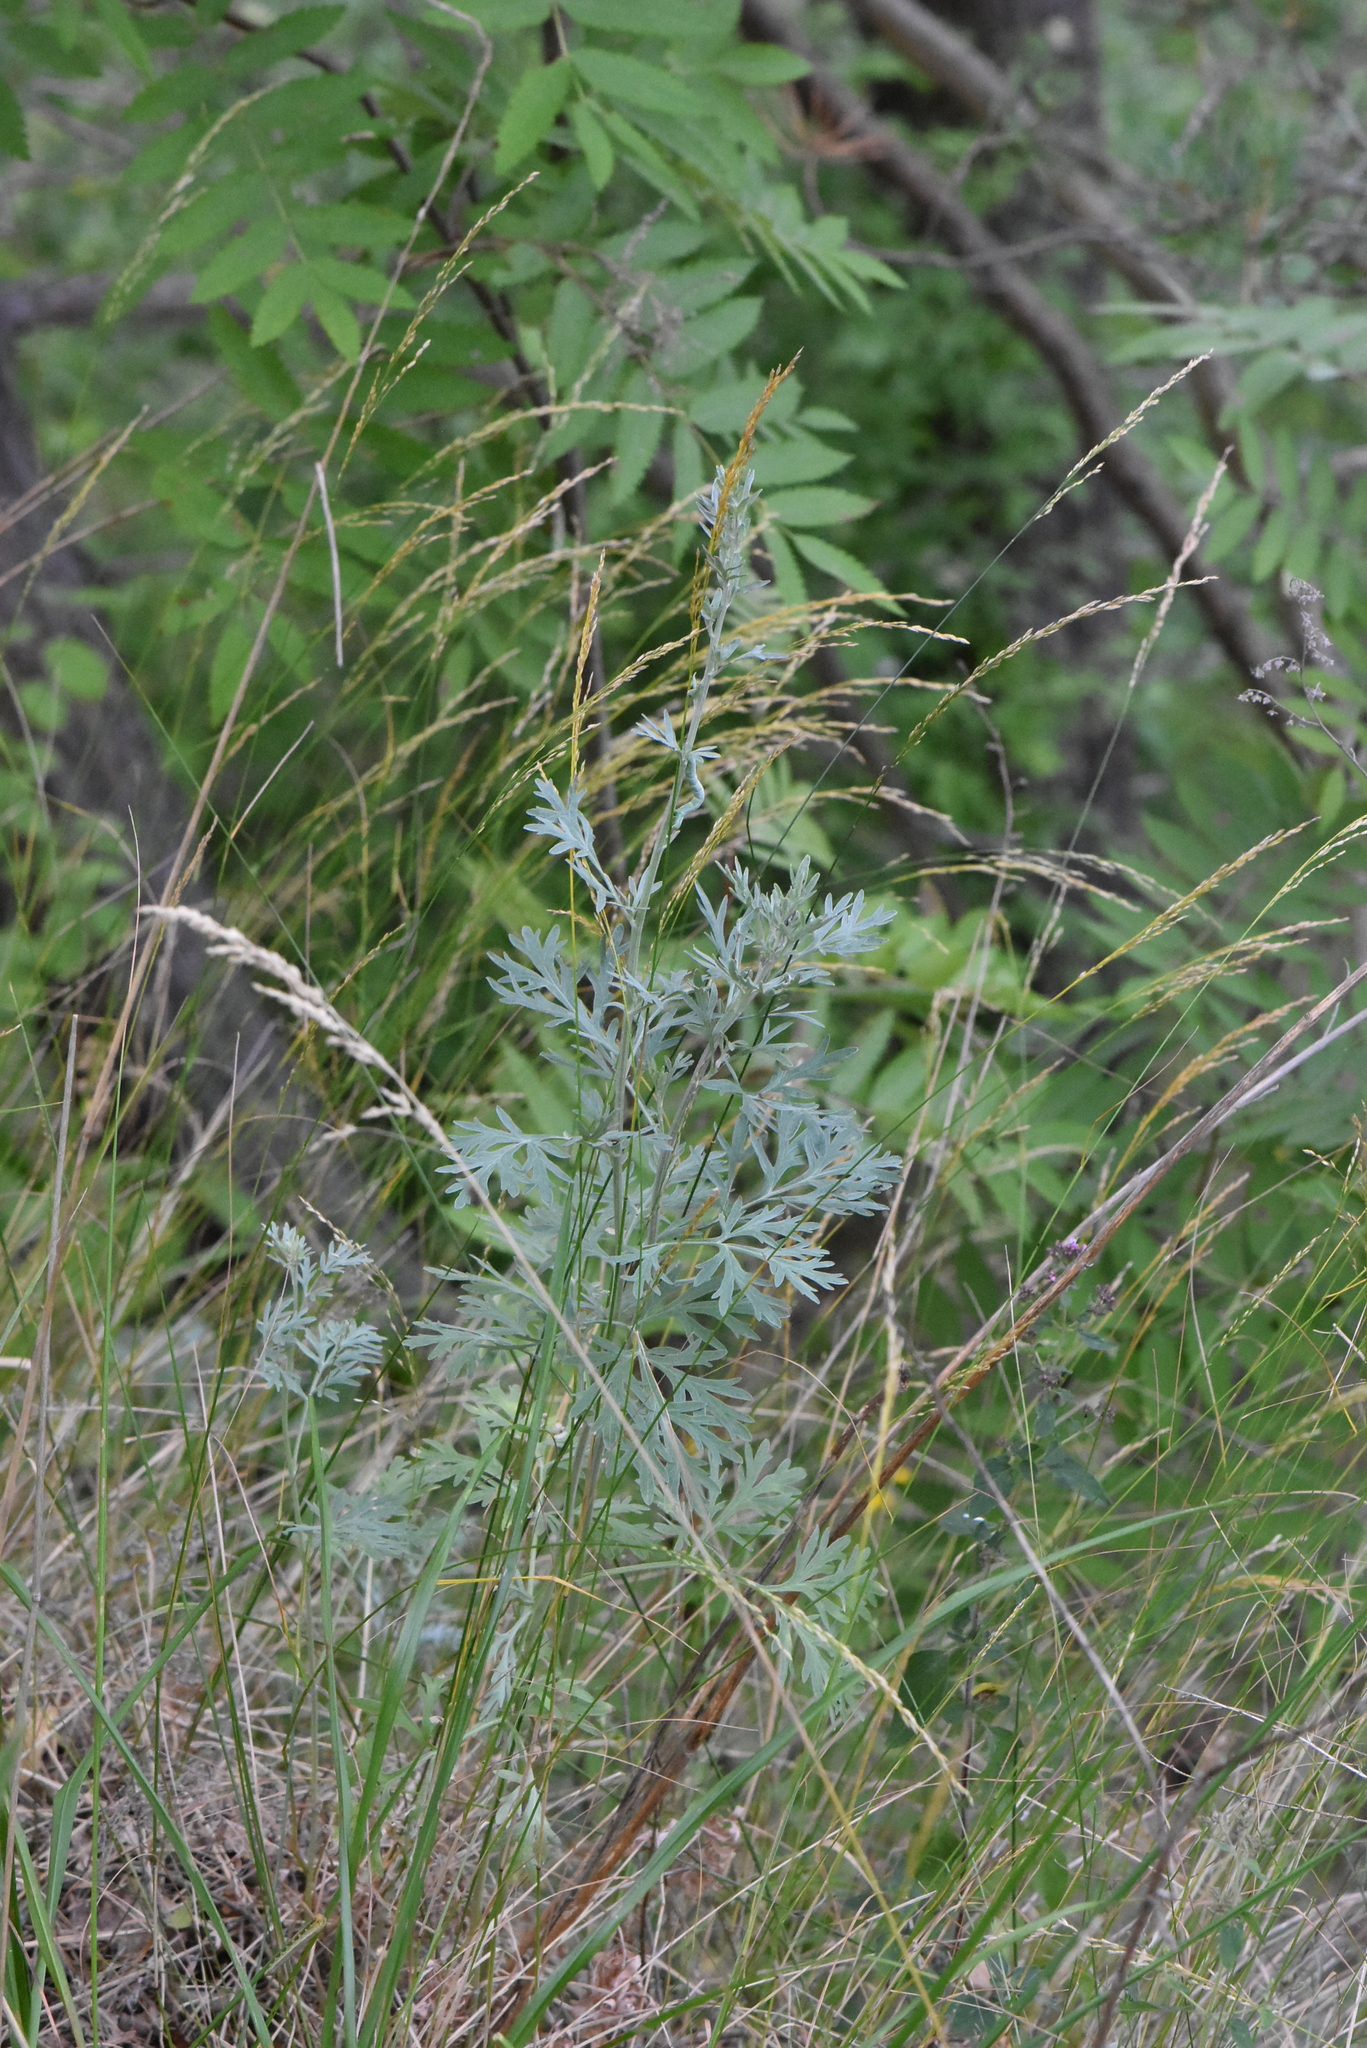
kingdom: Plantae
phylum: Tracheophyta
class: Magnoliopsida
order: Asterales
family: Asteraceae
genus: Artemisia
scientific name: Artemisia absinthium
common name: Wormwood
